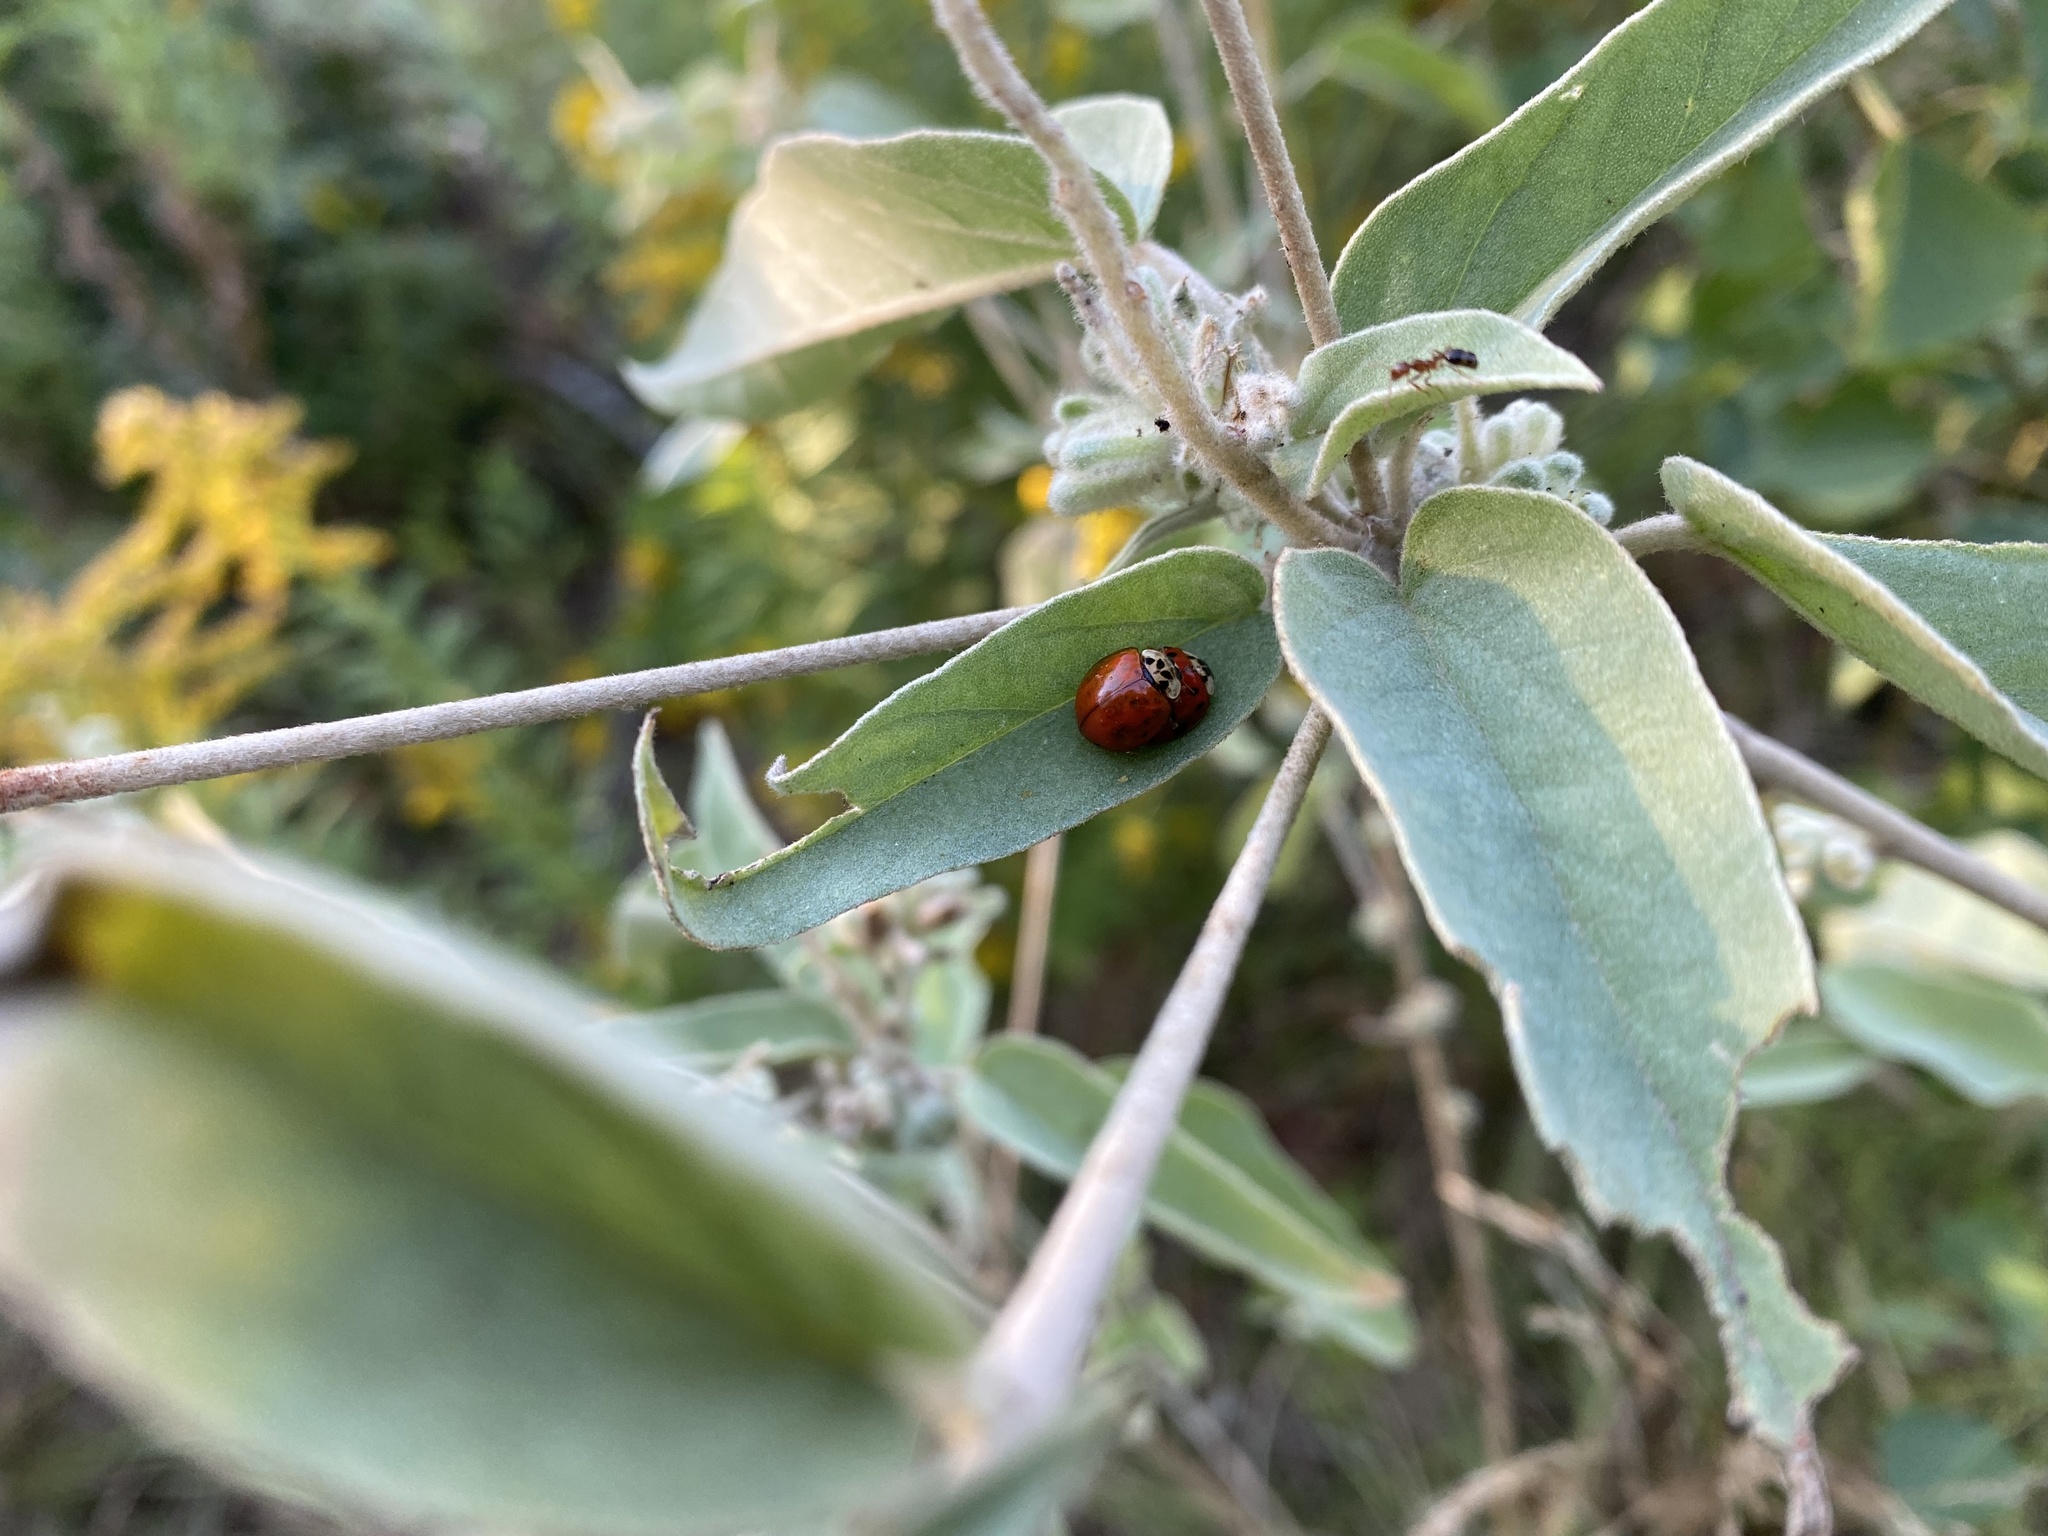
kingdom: Animalia
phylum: Arthropoda
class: Insecta
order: Coleoptera
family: Coccinellidae
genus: Harmonia
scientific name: Harmonia axyridis
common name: Harlequin ladybird
